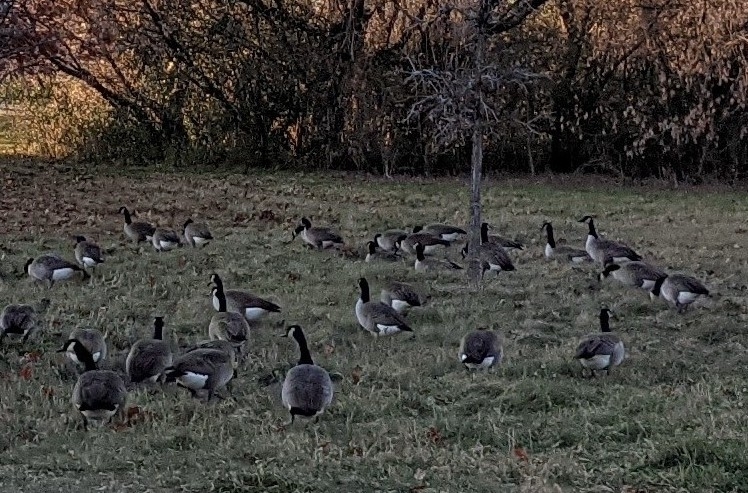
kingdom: Animalia
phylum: Chordata
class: Aves
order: Anseriformes
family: Anatidae
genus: Branta
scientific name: Branta canadensis
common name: Canada goose
